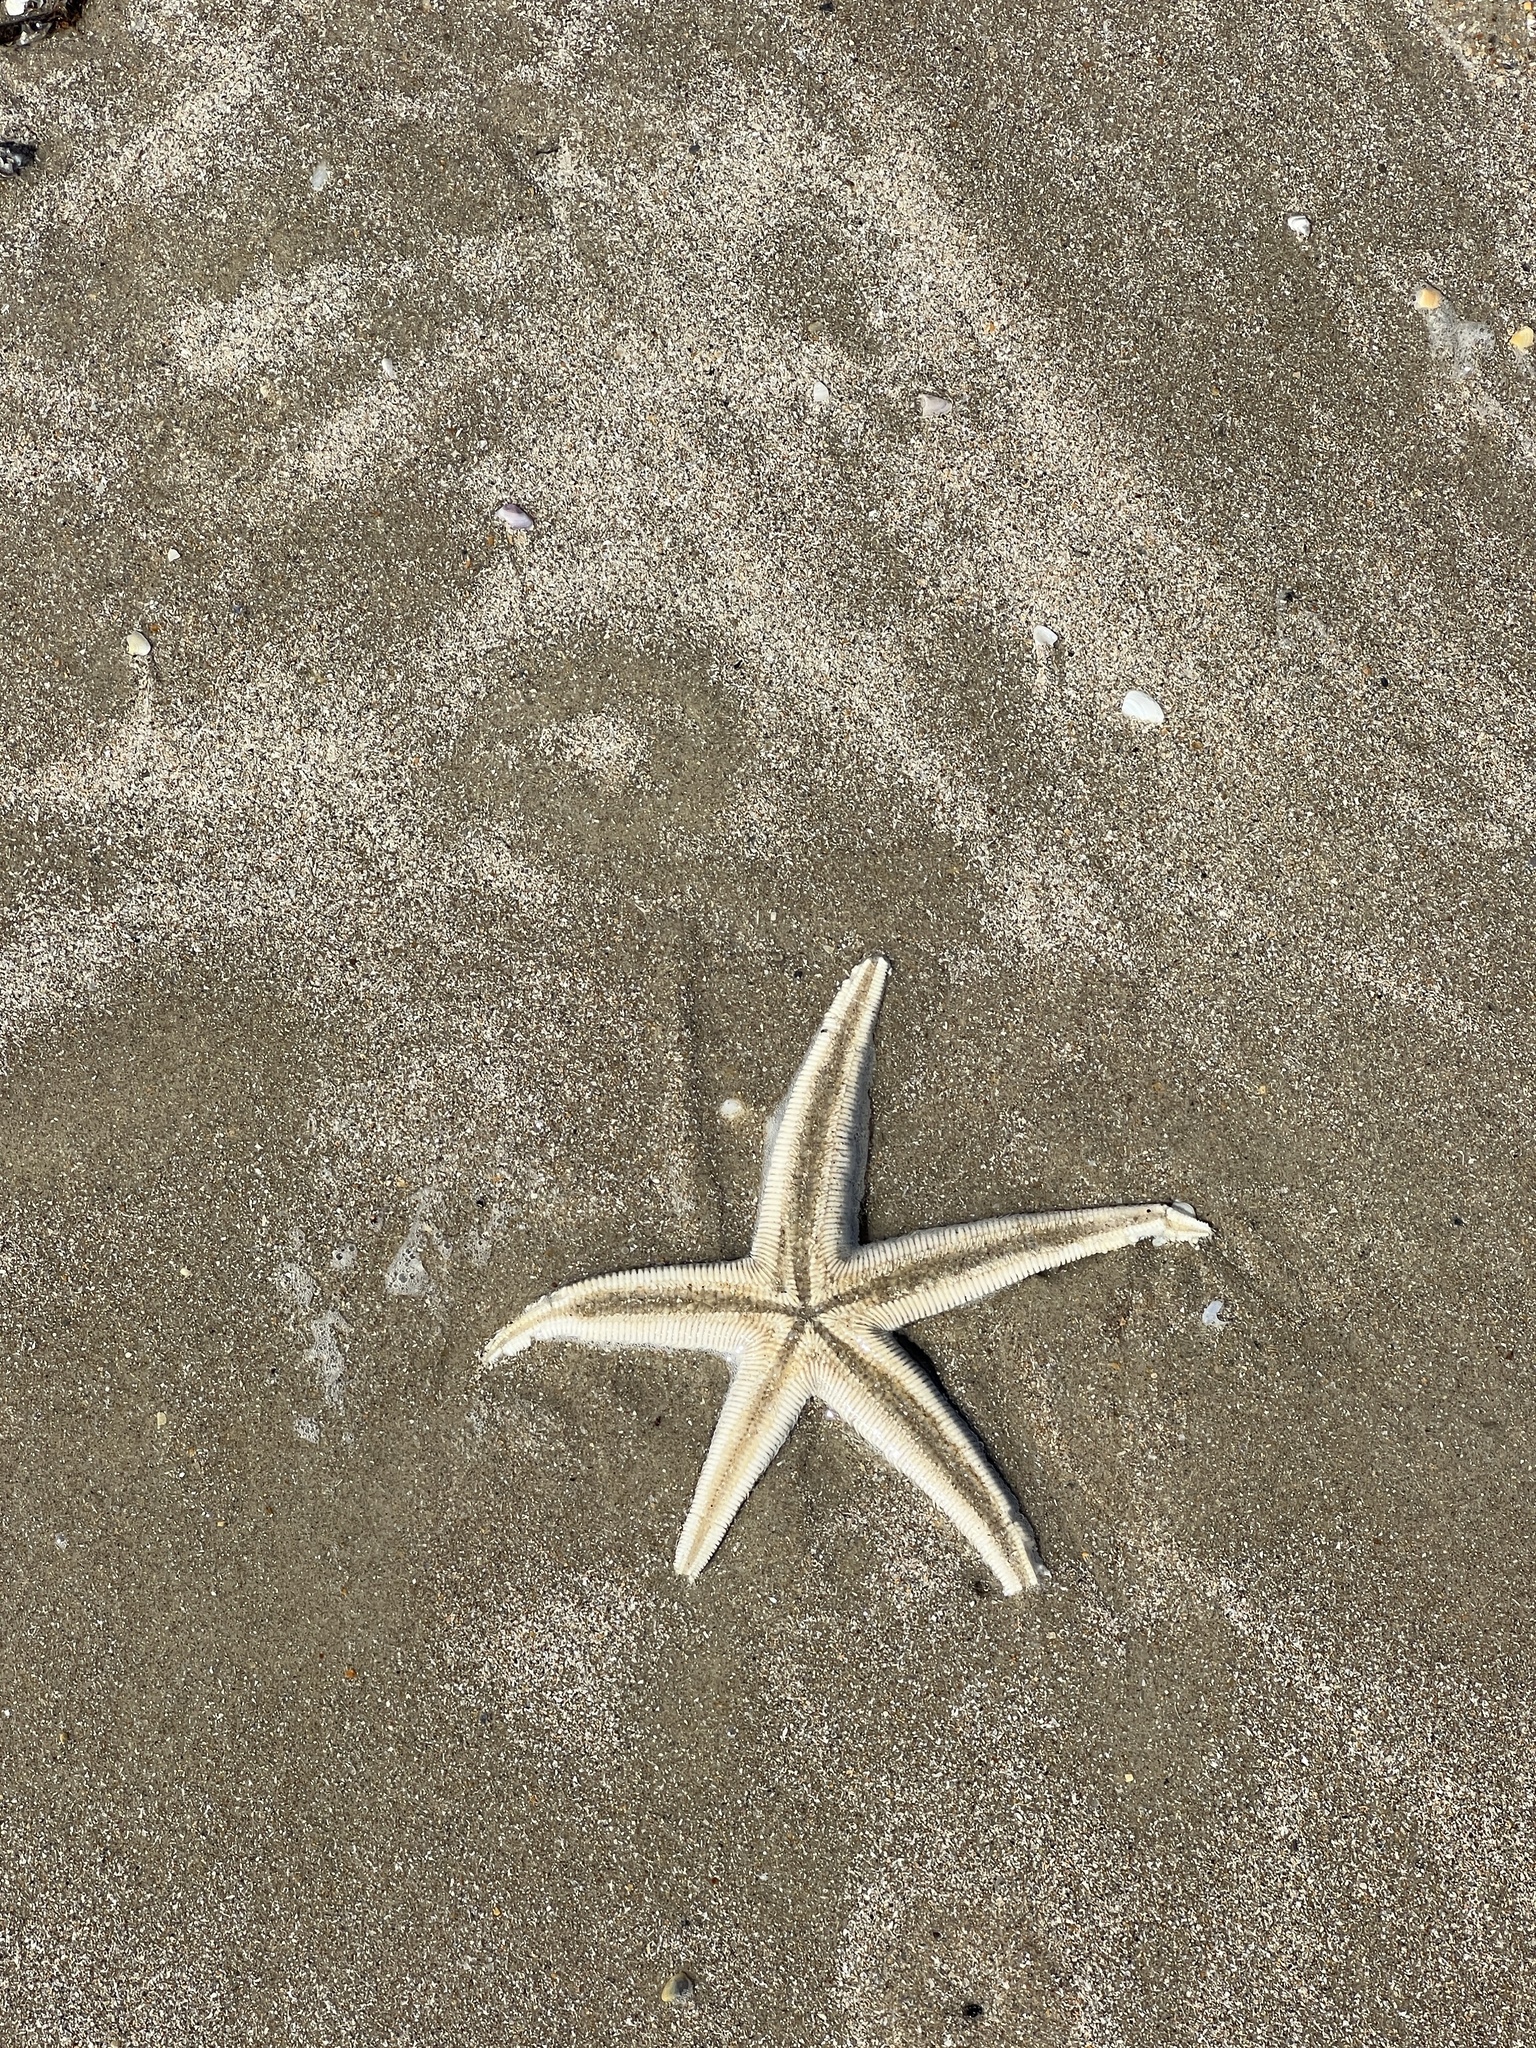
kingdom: Animalia
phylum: Echinodermata
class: Asteroidea
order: Paxillosida
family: Luidiidae
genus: Luidia
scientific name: Luidia clathrata
